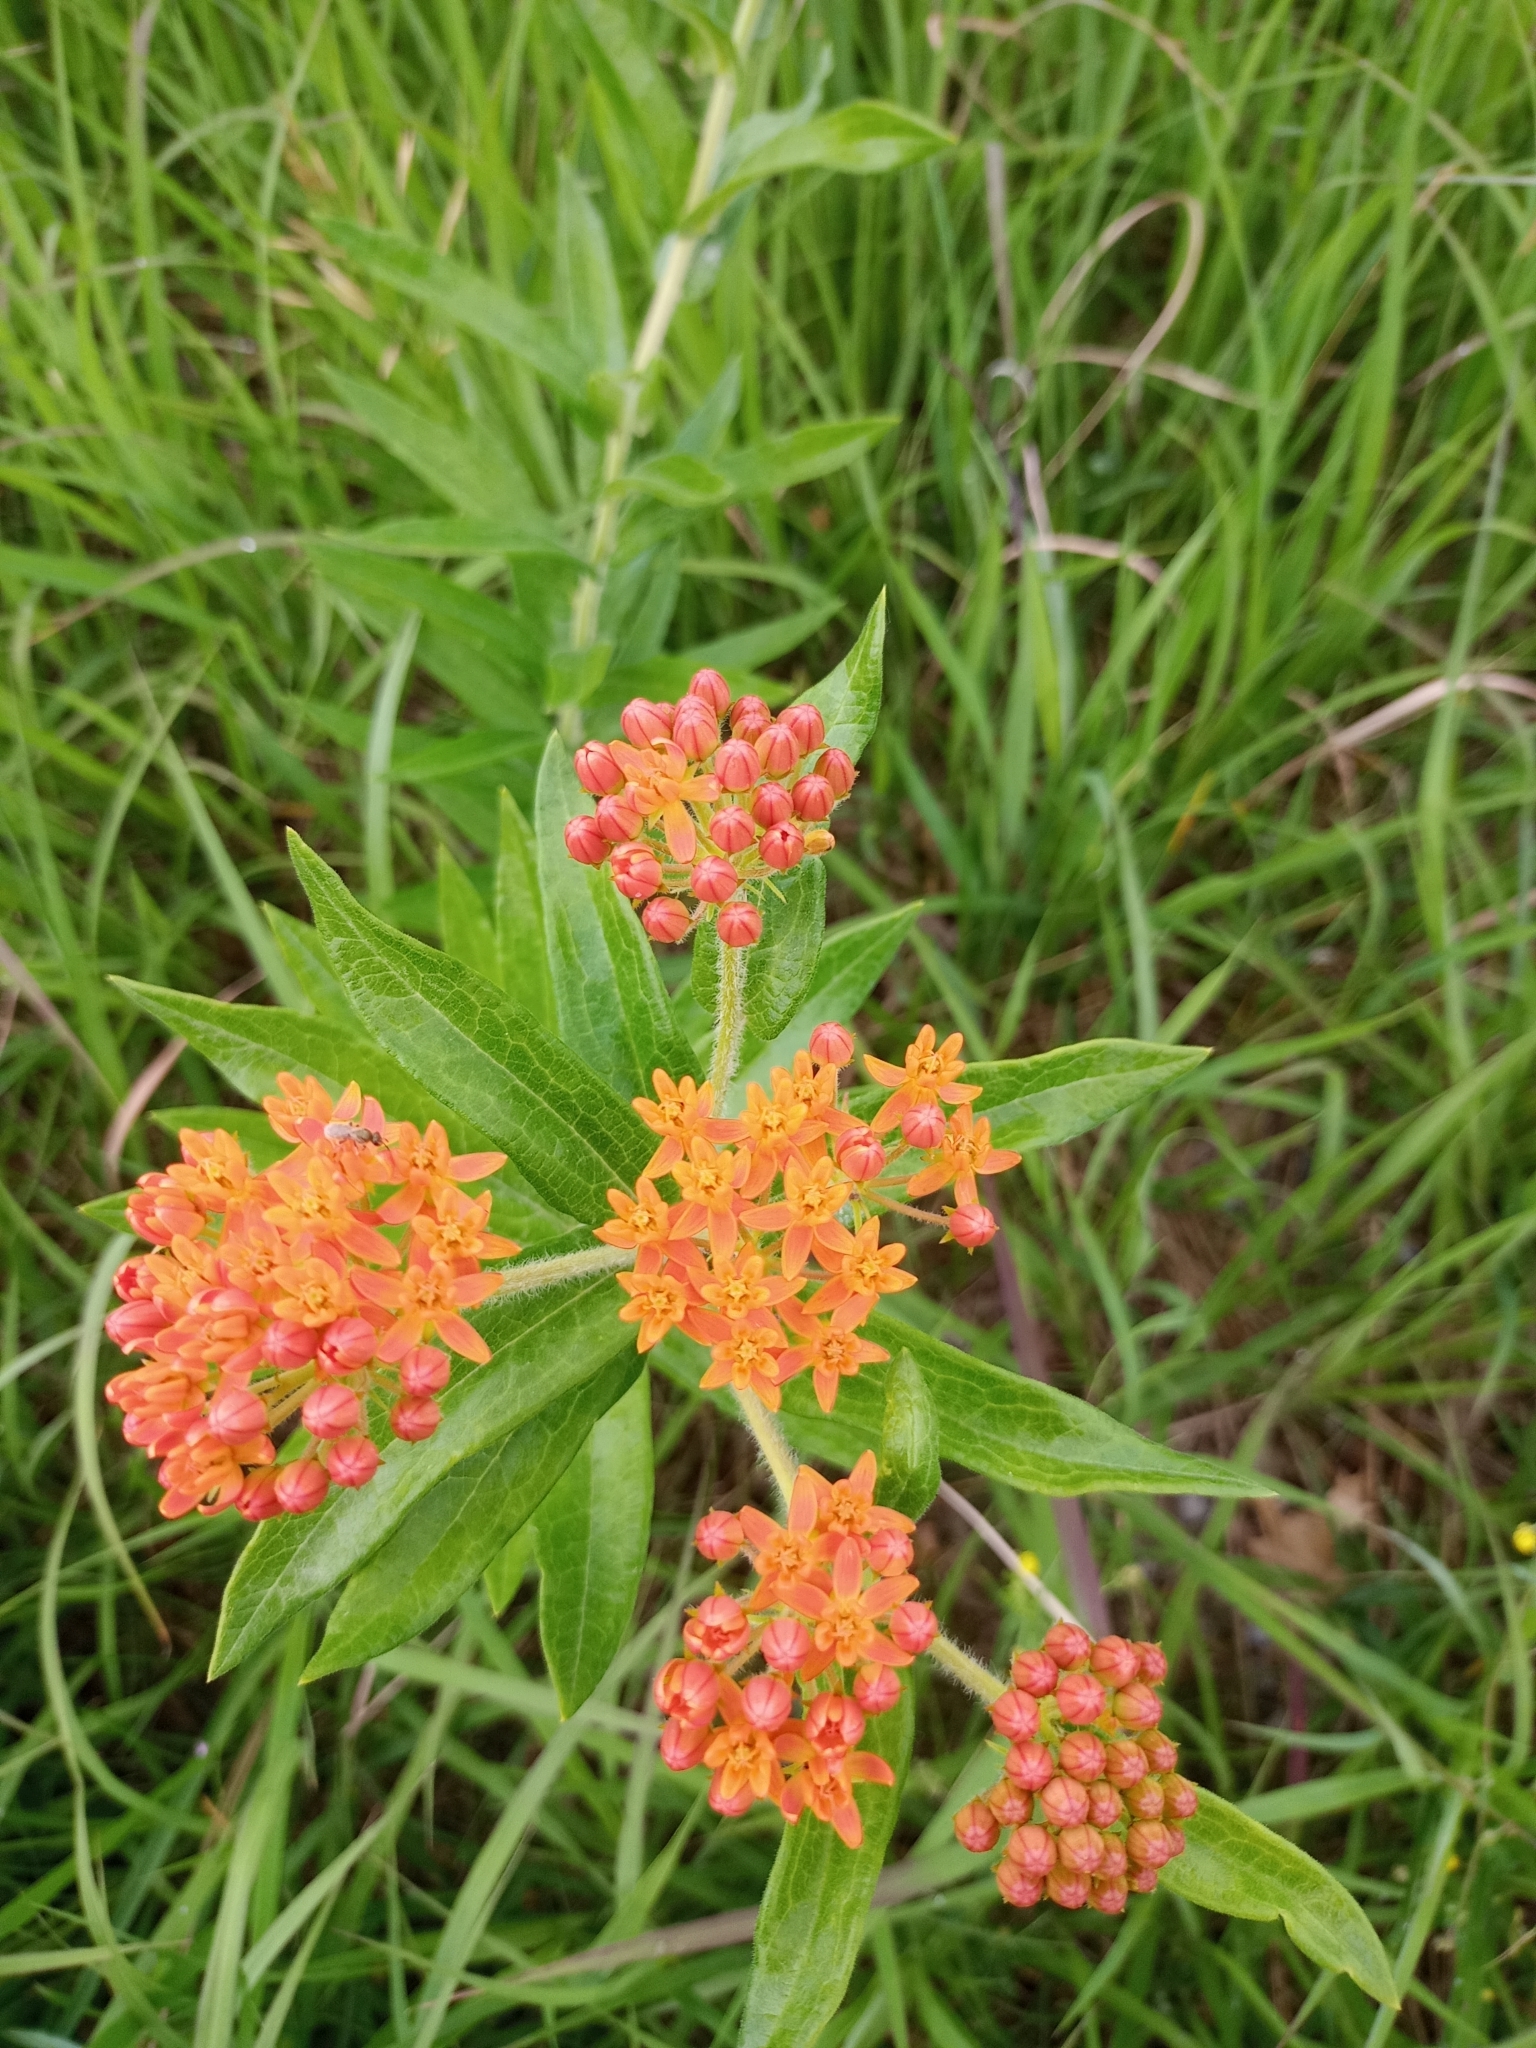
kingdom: Plantae
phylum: Tracheophyta
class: Magnoliopsida
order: Gentianales
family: Apocynaceae
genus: Asclepias
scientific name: Asclepias tuberosa
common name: Butterfly milkweed
